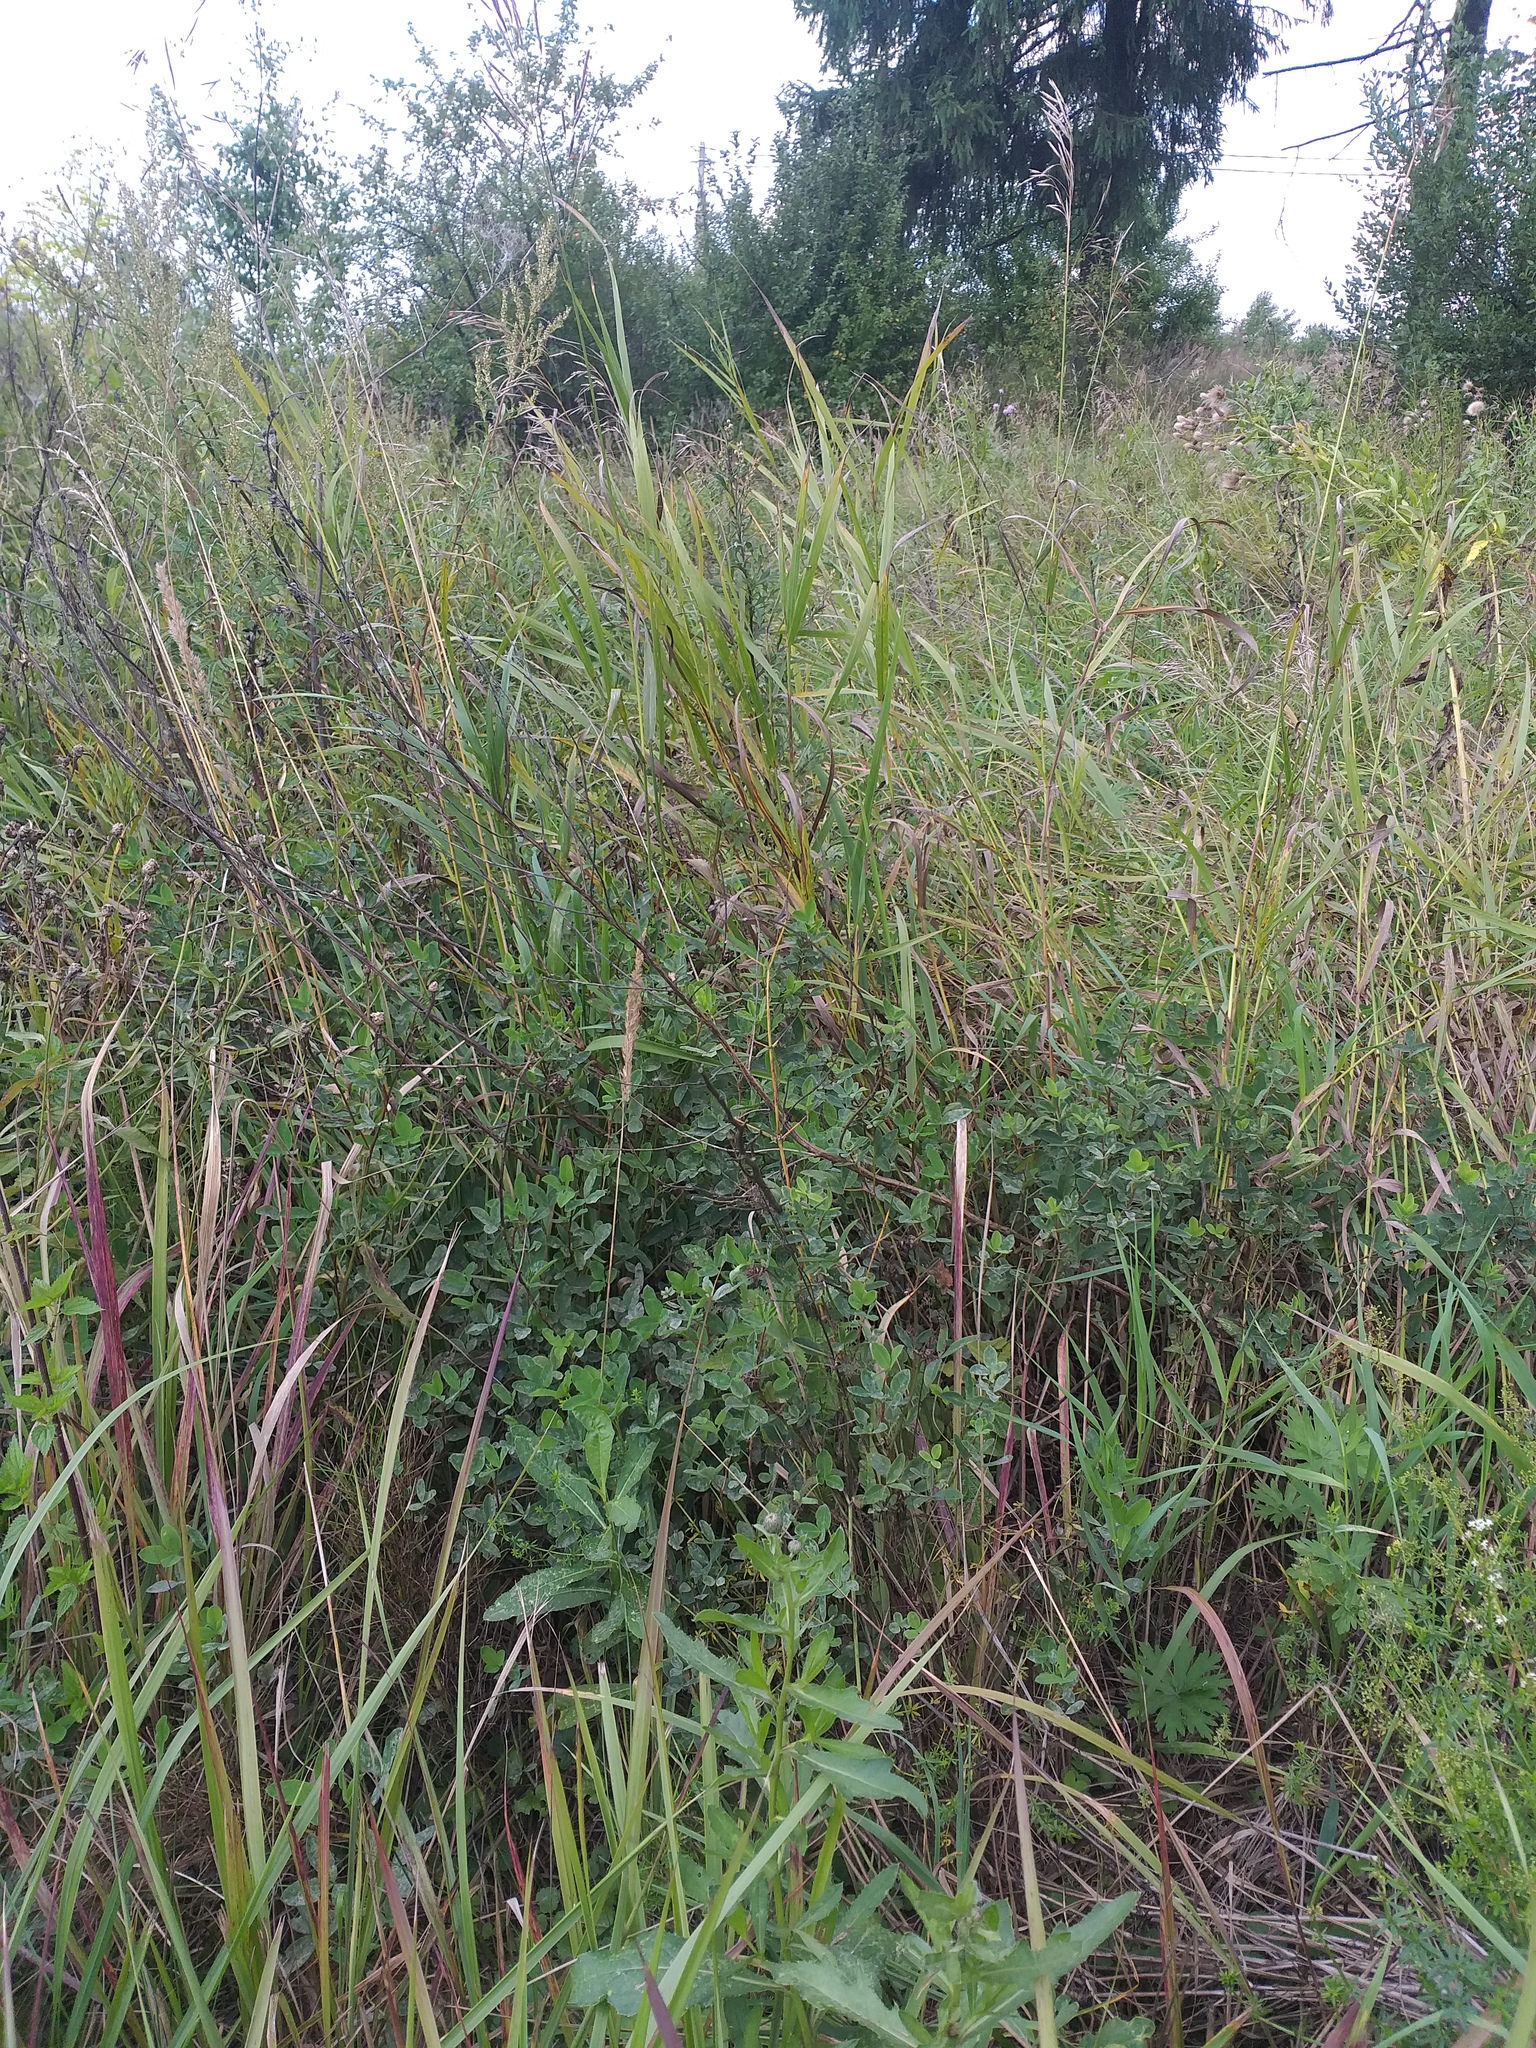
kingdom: Plantae
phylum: Tracheophyta
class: Magnoliopsida
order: Fabales
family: Fabaceae
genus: Trifolium
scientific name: Trifolium medium
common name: Zigzag clover
